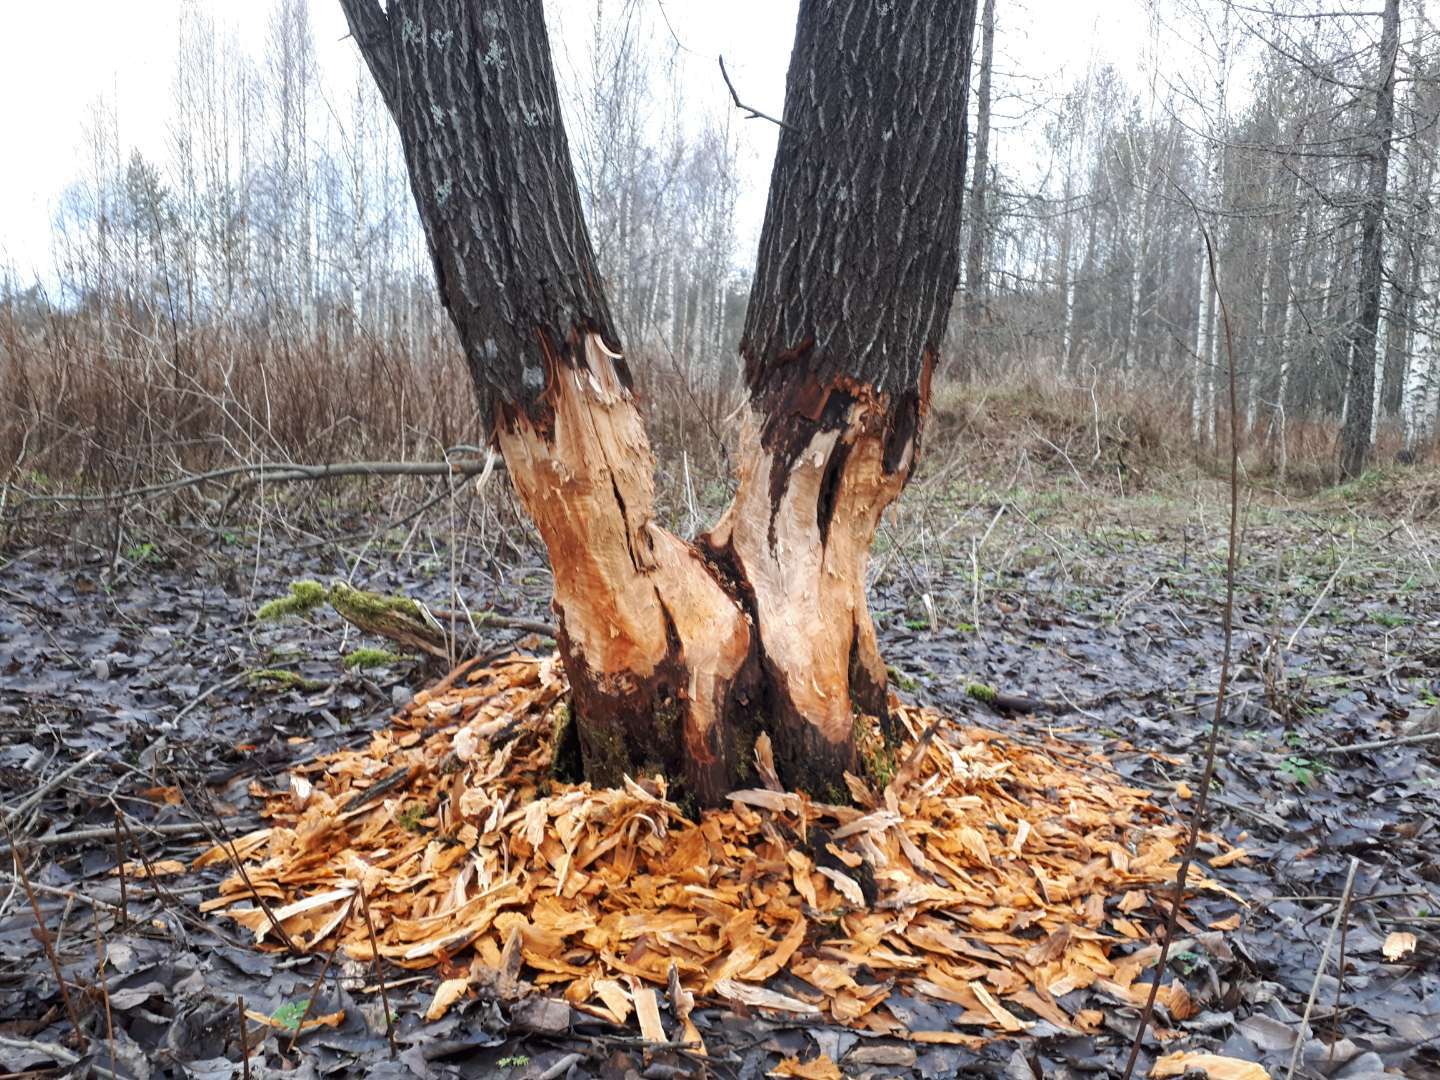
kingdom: Animalia
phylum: Chordata
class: Mammalia
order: Rodentia
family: Castoridae
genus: Castor
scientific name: Castor
